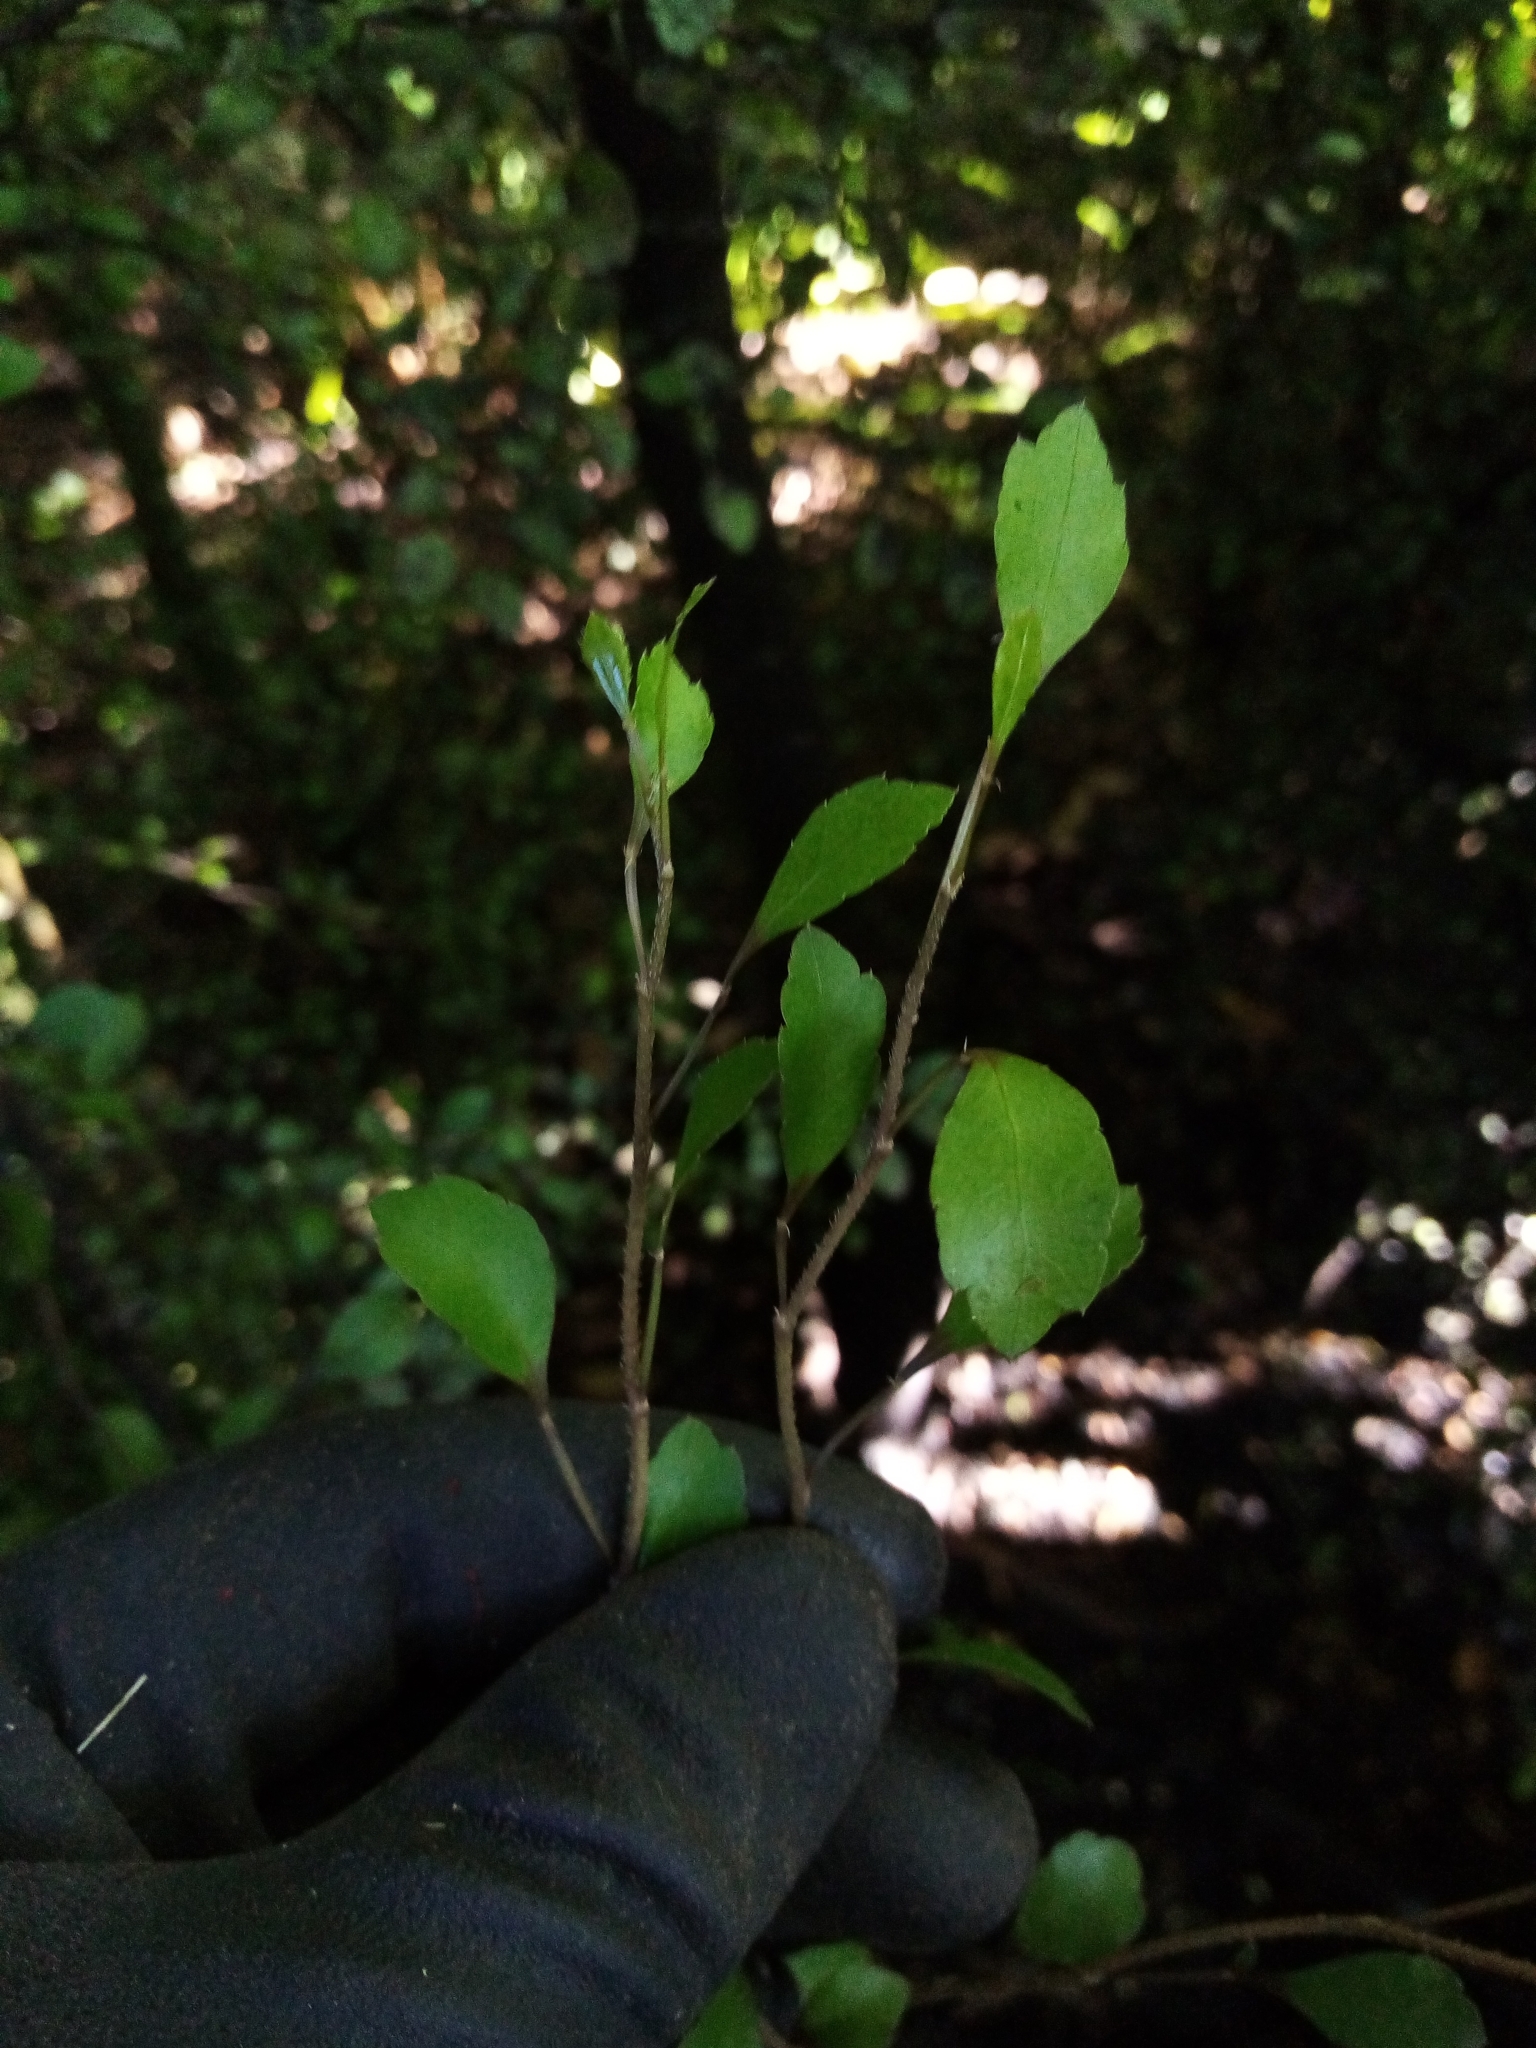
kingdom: Plantae
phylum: Tracheophyta
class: Magnoliopsida
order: Rosales
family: Moraceae
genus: Paratrophis
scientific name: Paratrophis microphylla
